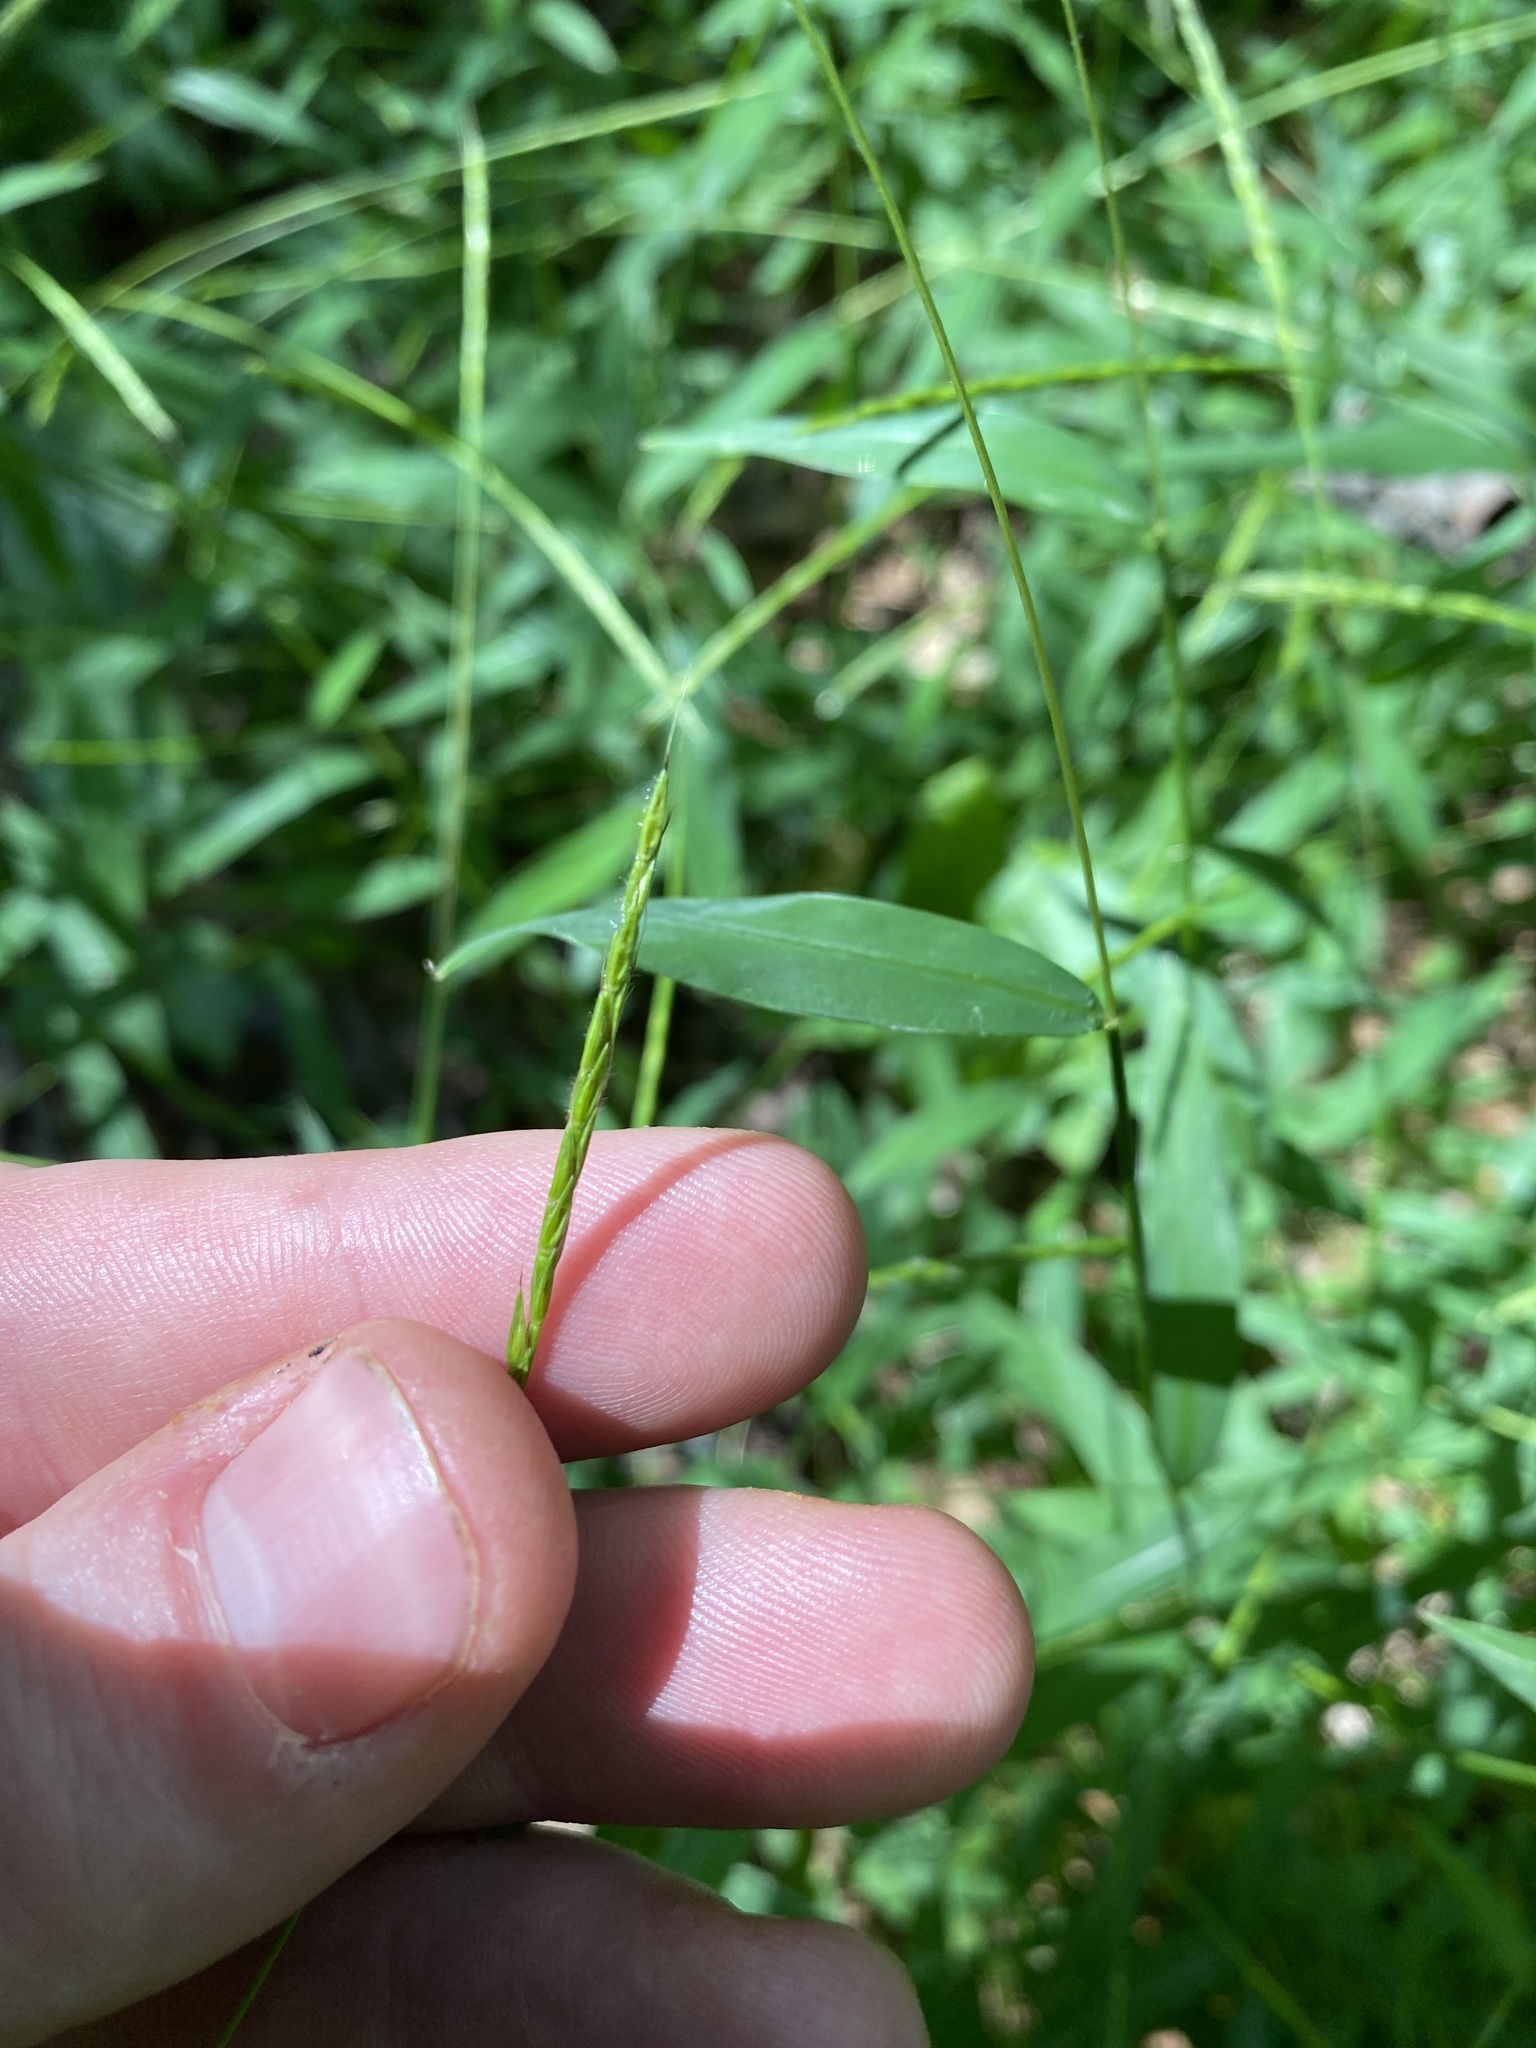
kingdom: Plantae
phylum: Tracheophyta
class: Liliopsida
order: Poales
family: Poaceae
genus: Microstegium
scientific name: Microstegium vimineum
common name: Japanese stiltgrass
